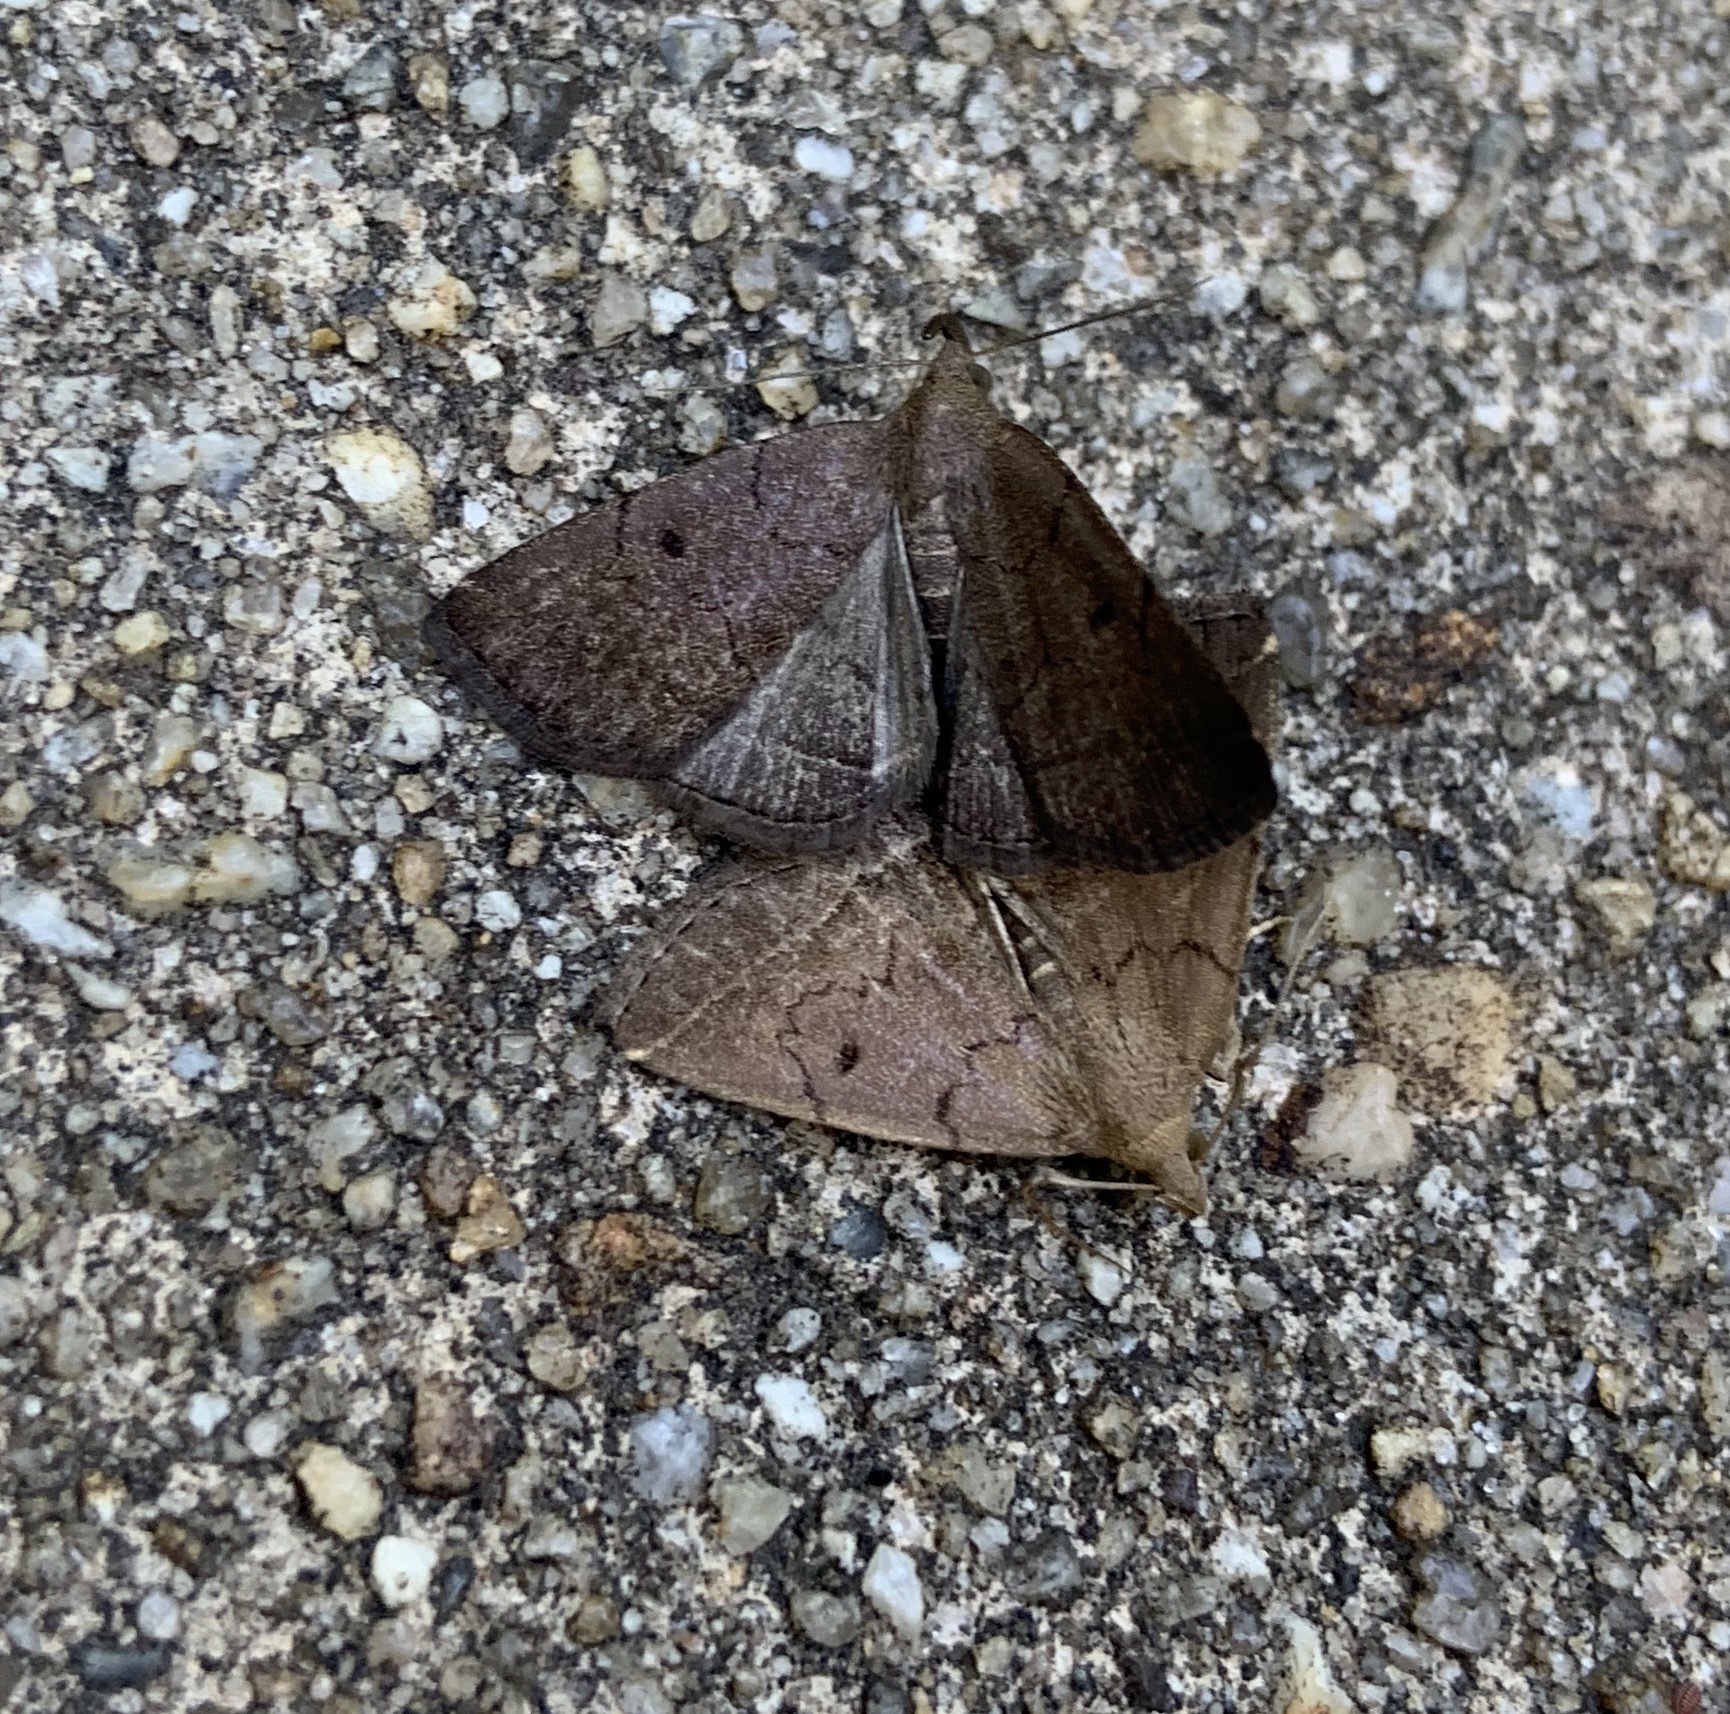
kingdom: Animalia
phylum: Arthropoda
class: Insecta
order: Lepidoptera
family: Erebidae
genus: Zanclognatha
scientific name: Zanclognatha protumnusalis
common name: Complex fan-foot
